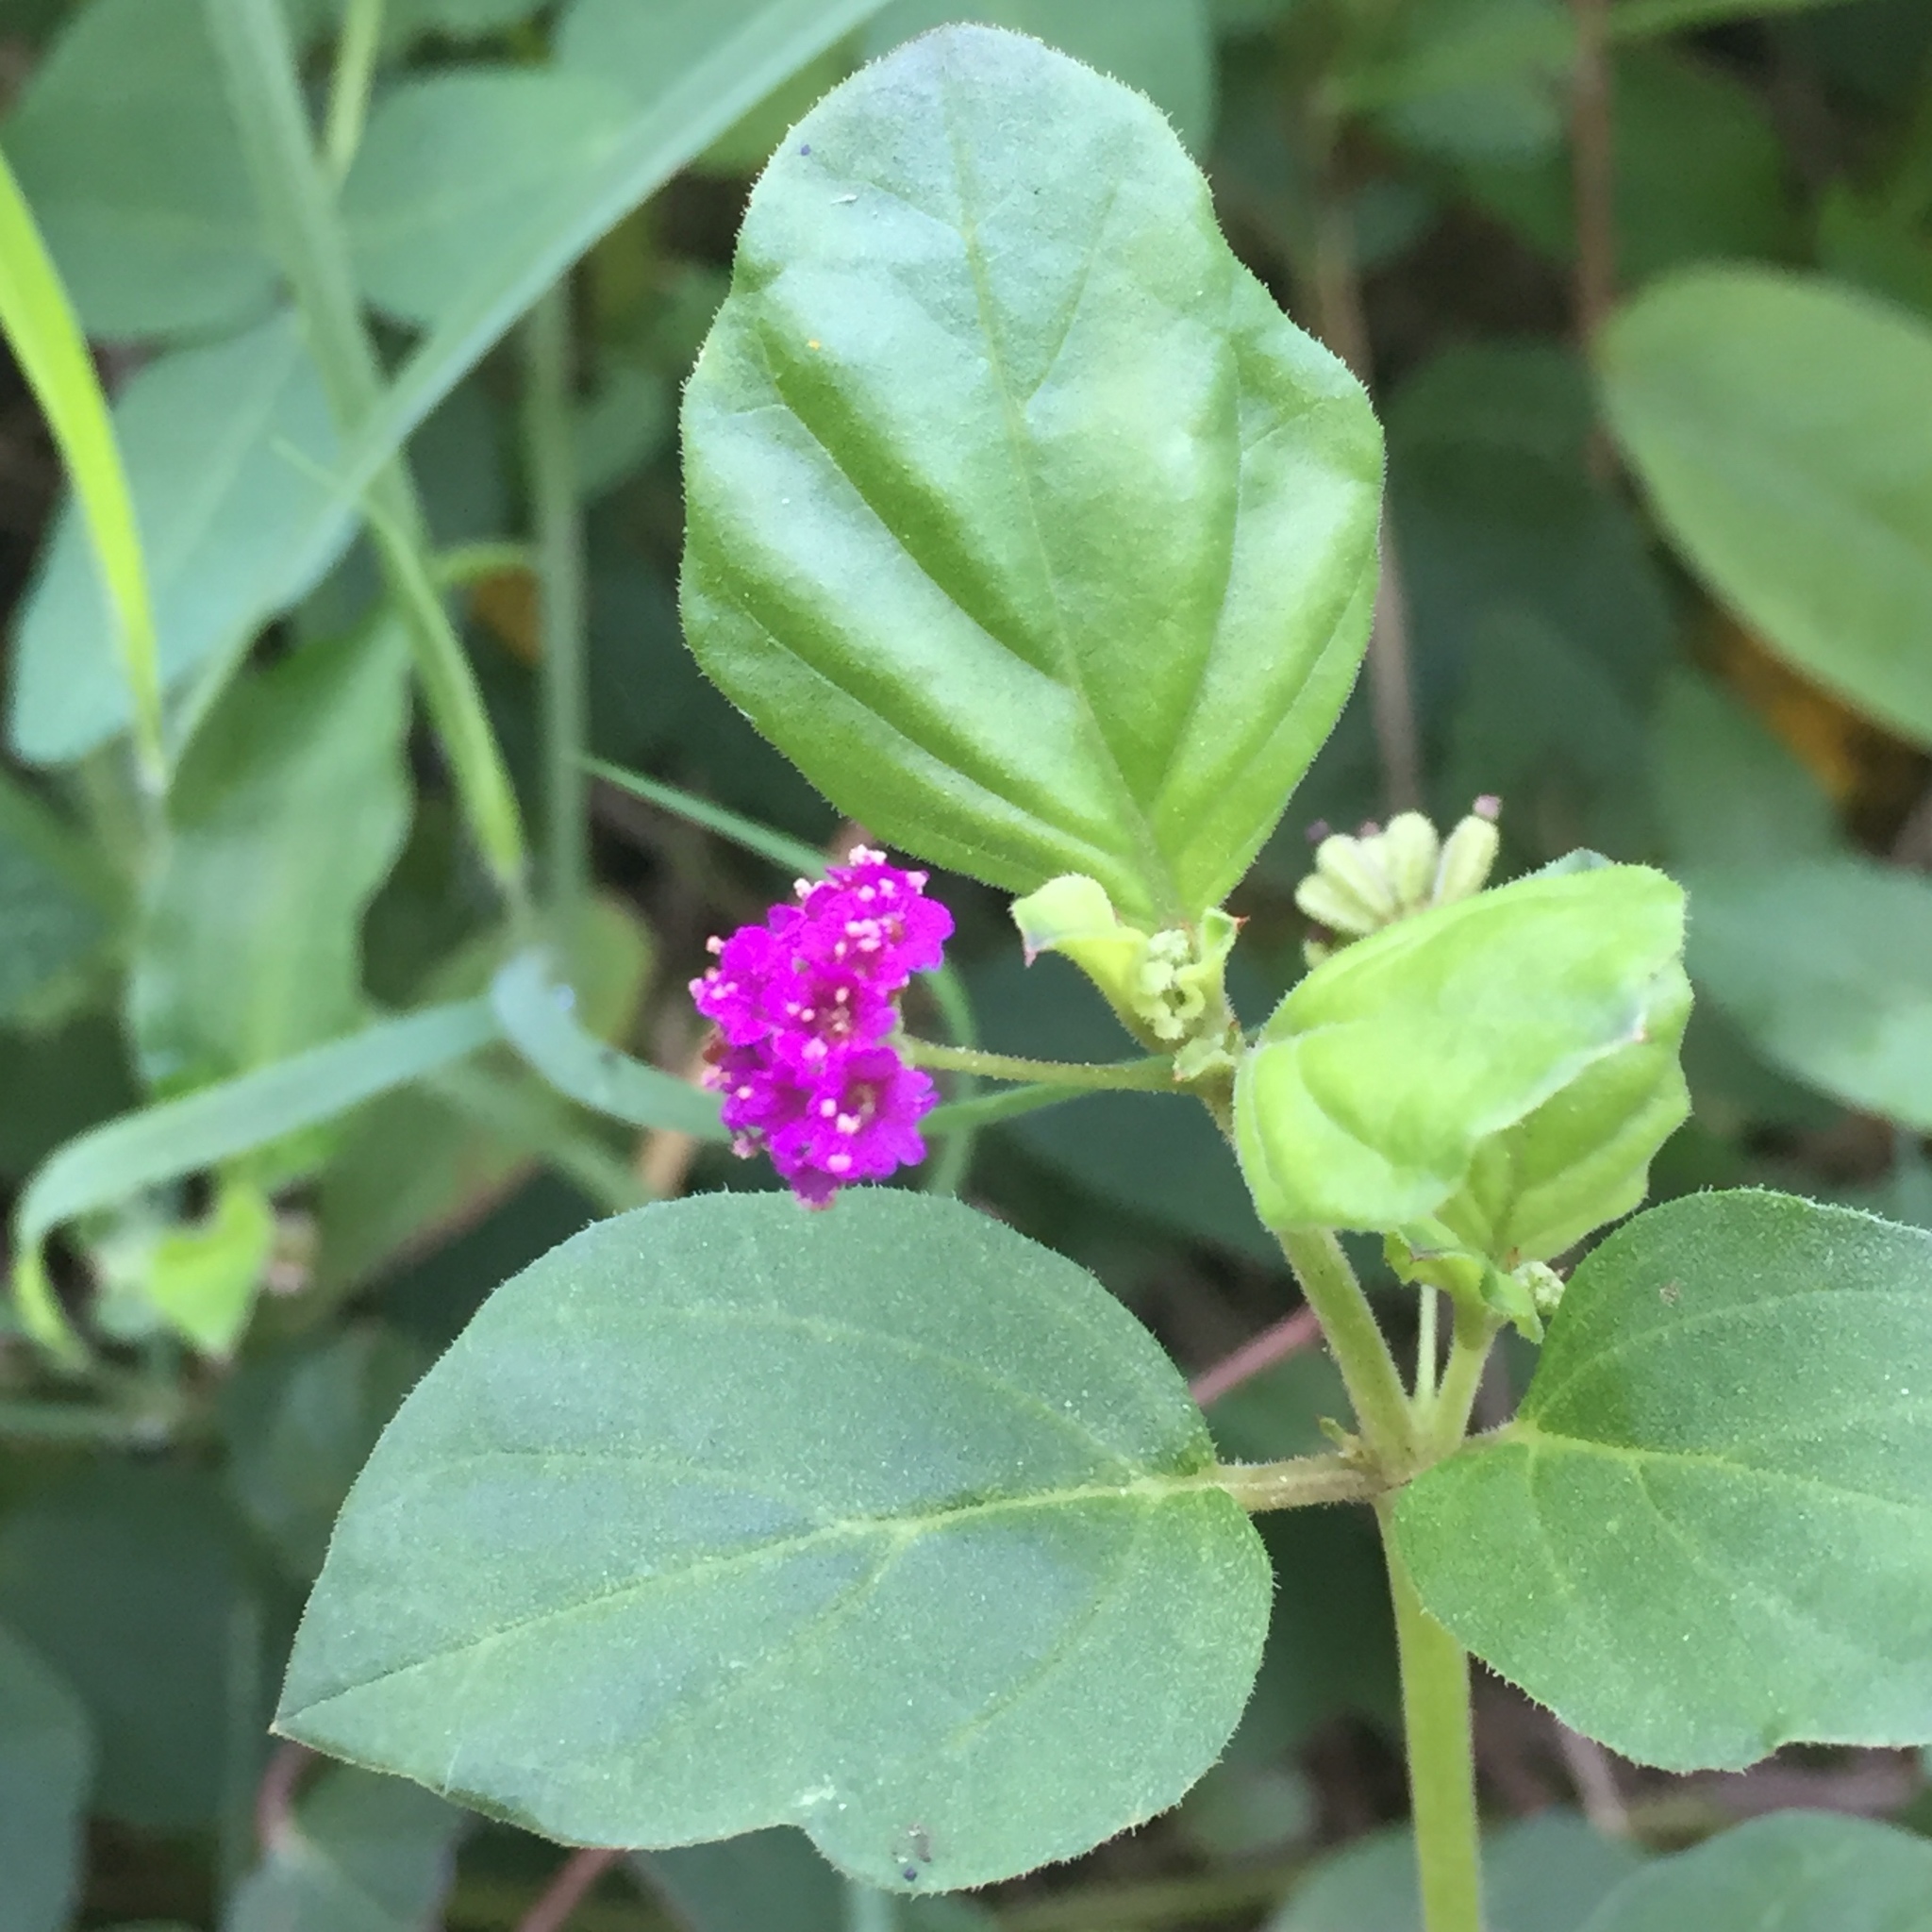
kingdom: Plantae
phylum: Tracheophyta
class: Magnoliopsida
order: Caryophyllales
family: Nyctaginaceae
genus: Boerhavia
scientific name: Boerhavia diffusa
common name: Red spiderling
